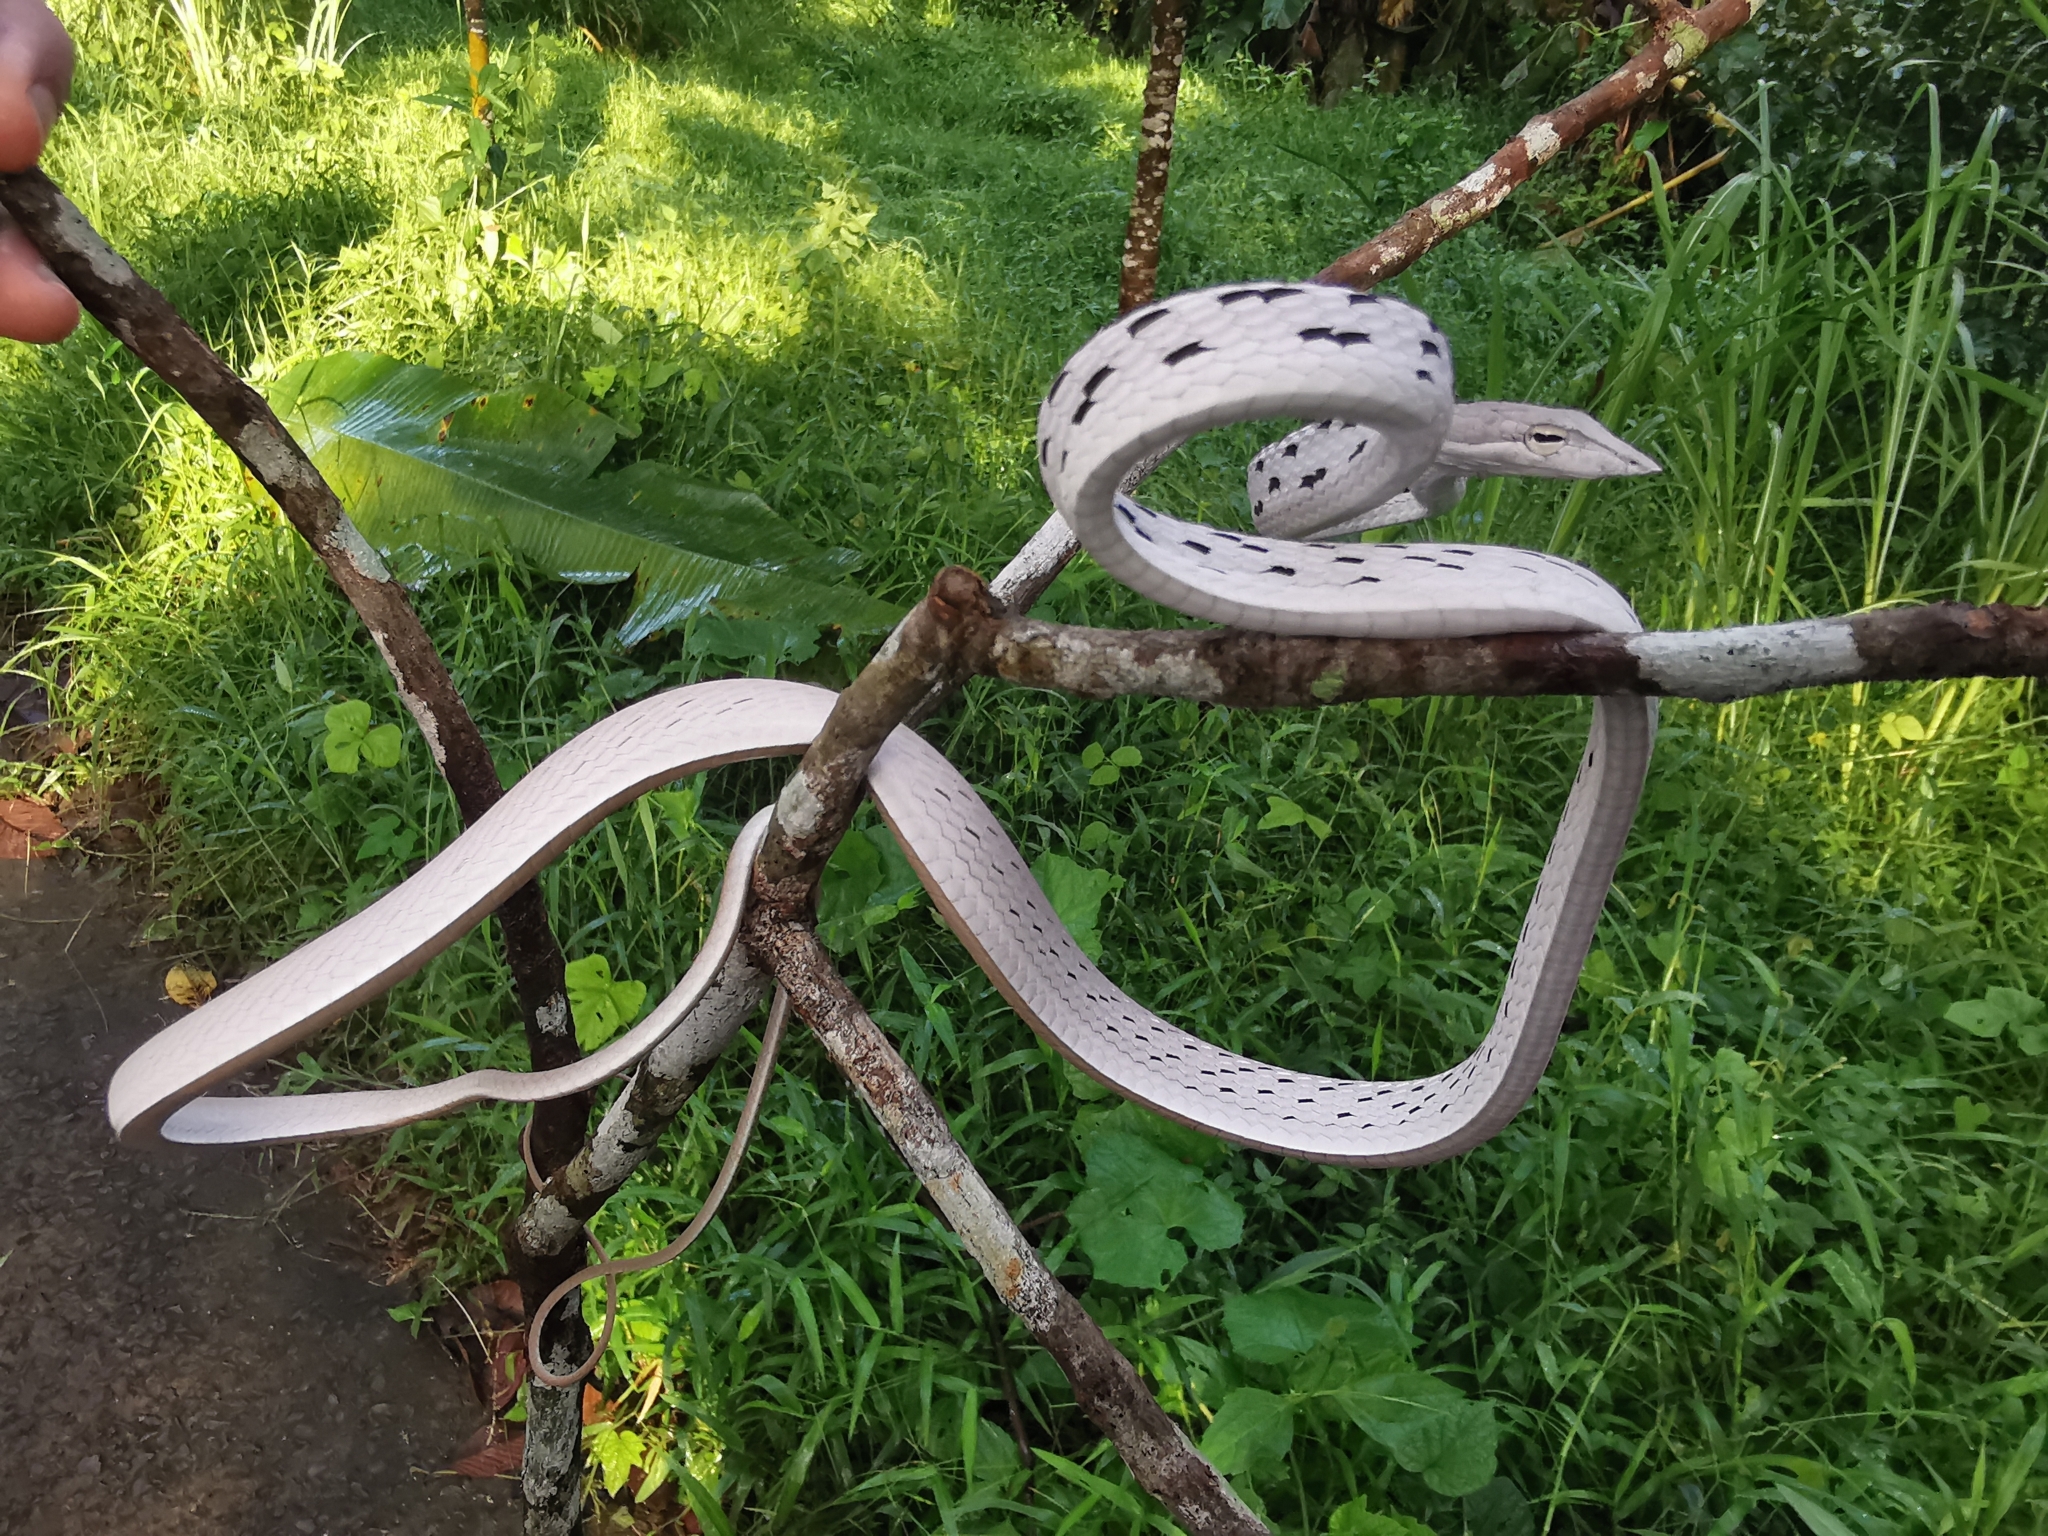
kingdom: Animalia
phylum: Chordata
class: Squamata
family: Colubridae
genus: Ahaetulla
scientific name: Ahaetulla prasina
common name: Oriental whip snake
